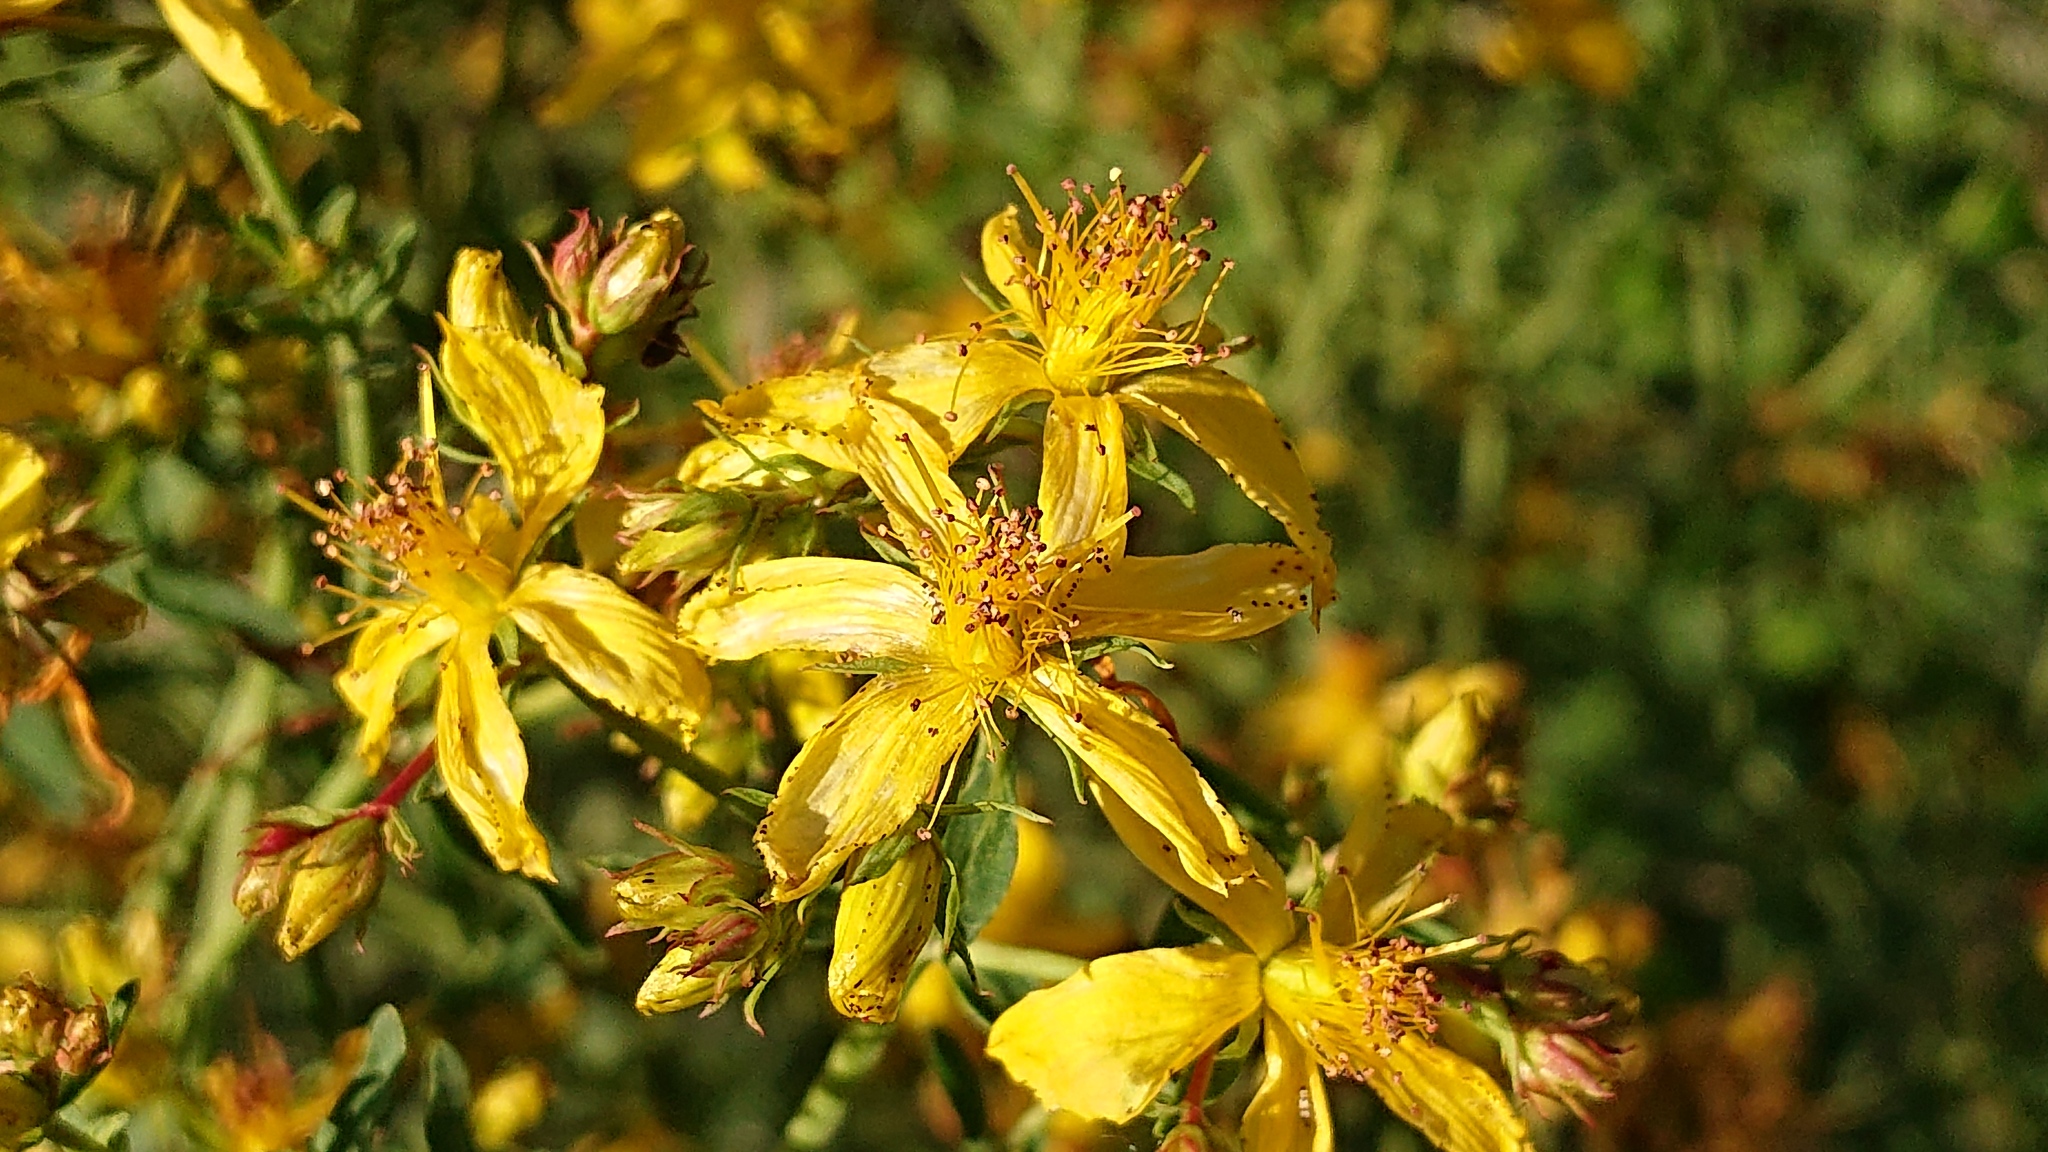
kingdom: Plantae
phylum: Tracheophyta
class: Magnoliopsida
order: Malpighiales
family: Hypericaceae
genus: Hypericum
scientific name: Hypericum perforatum
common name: Common st. johnswort
